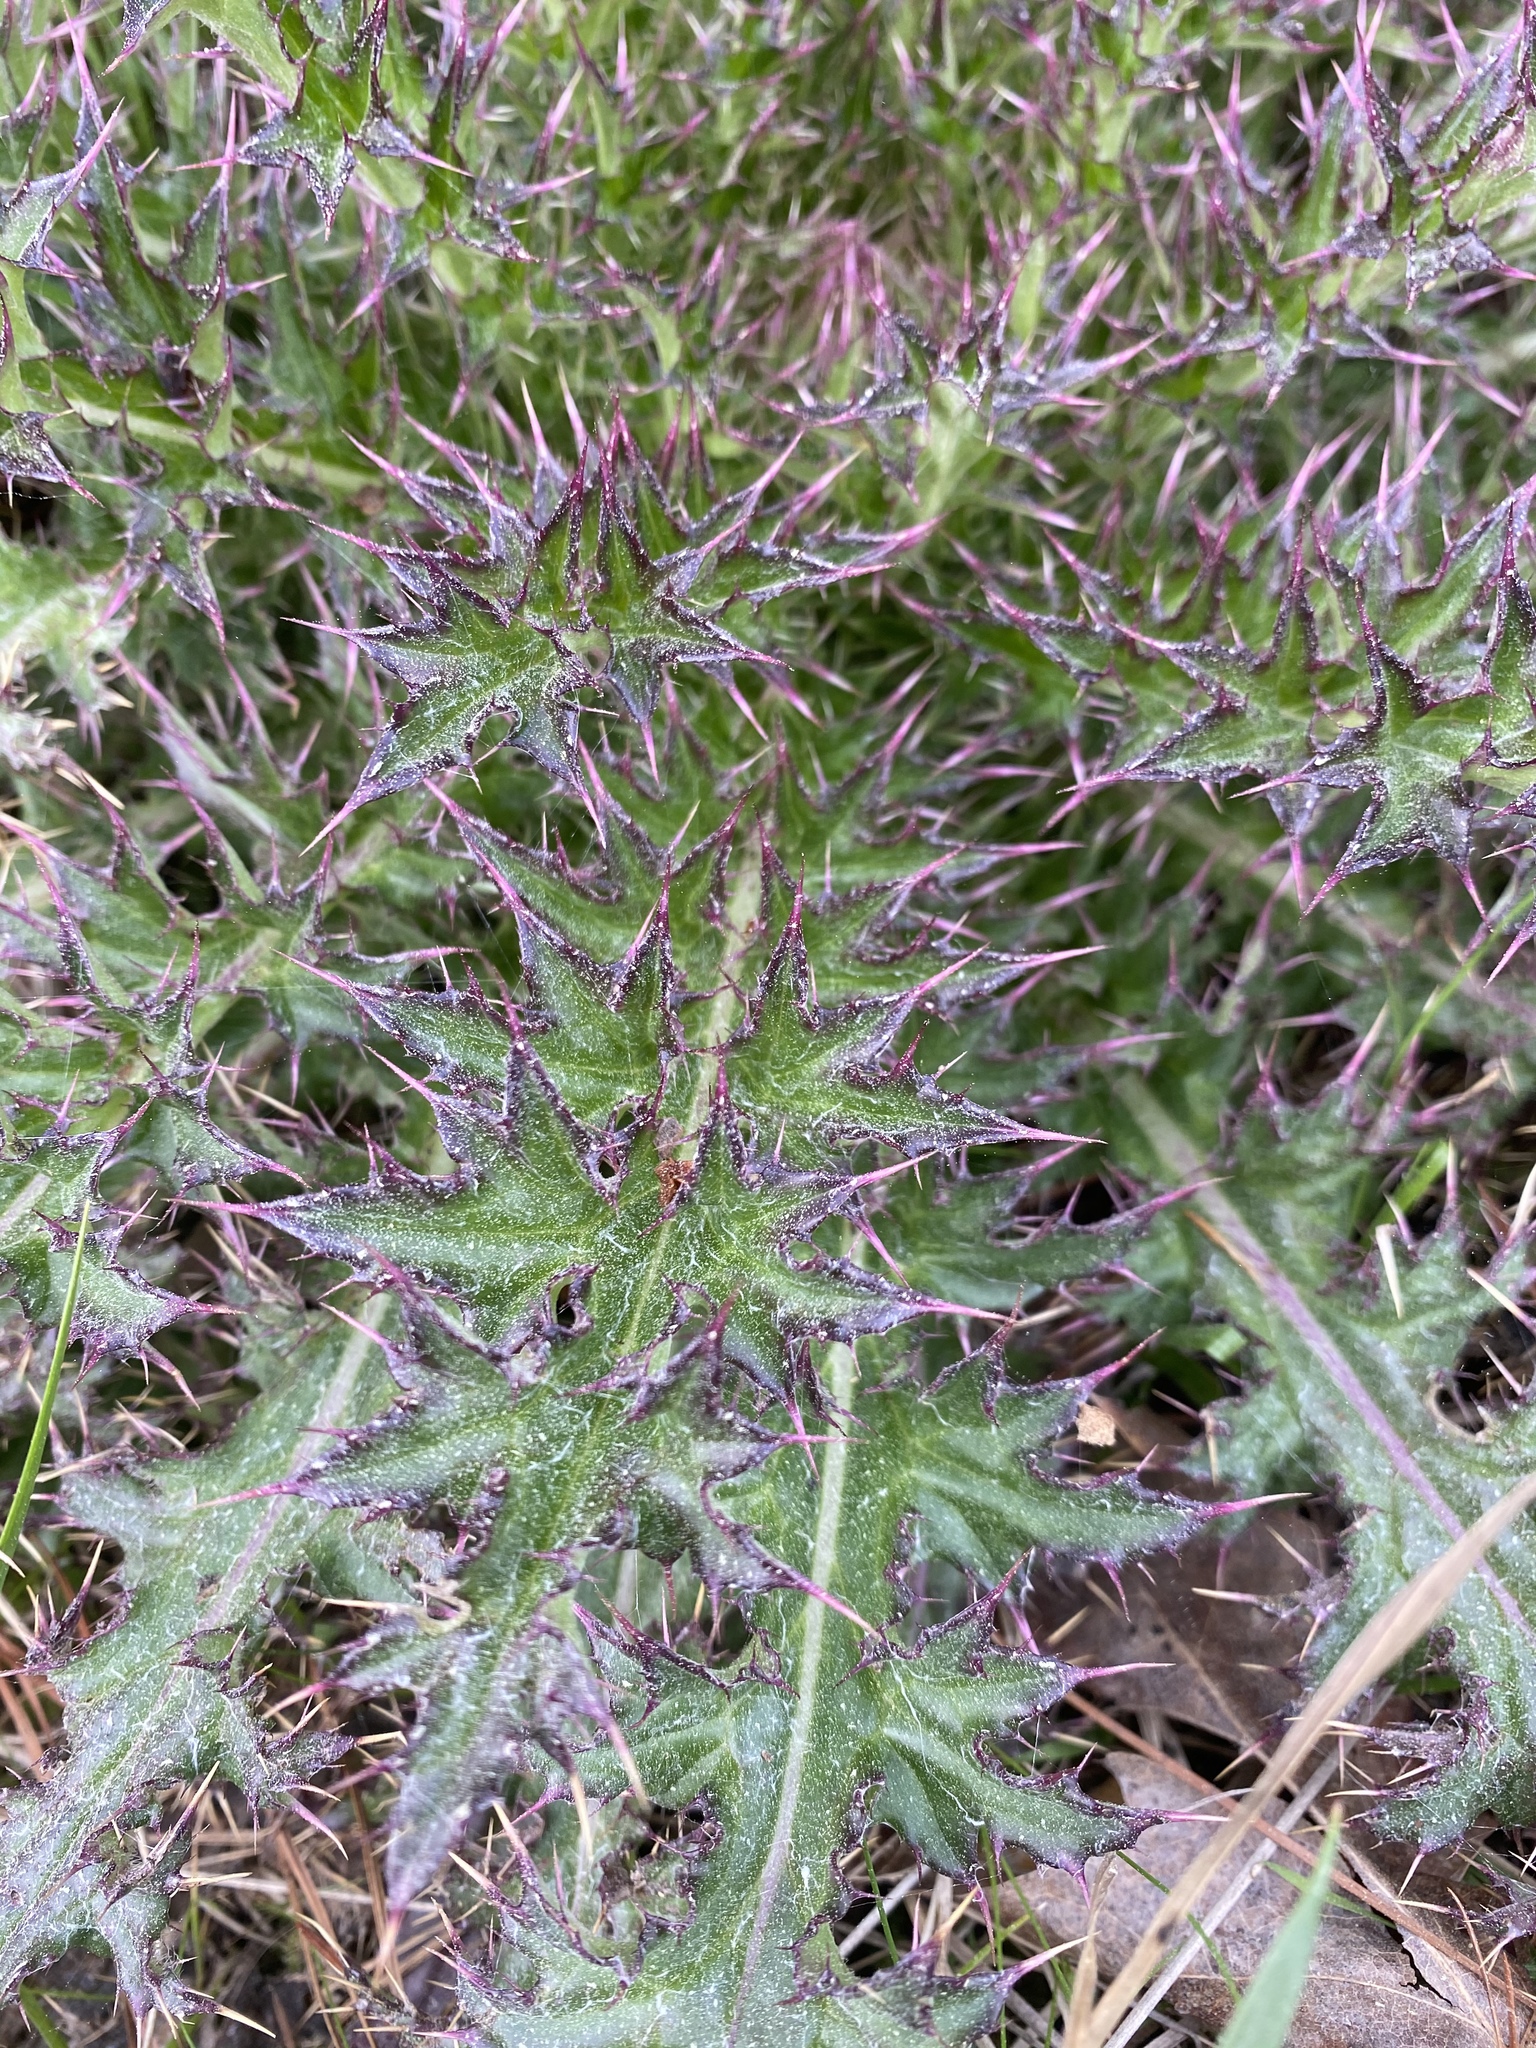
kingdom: Plantae
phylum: Tracheophyta
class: Magnoliopsida
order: Asterales
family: Asteraceae
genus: Cirsium
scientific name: Cirsium horridulum
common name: Bristly thistle
